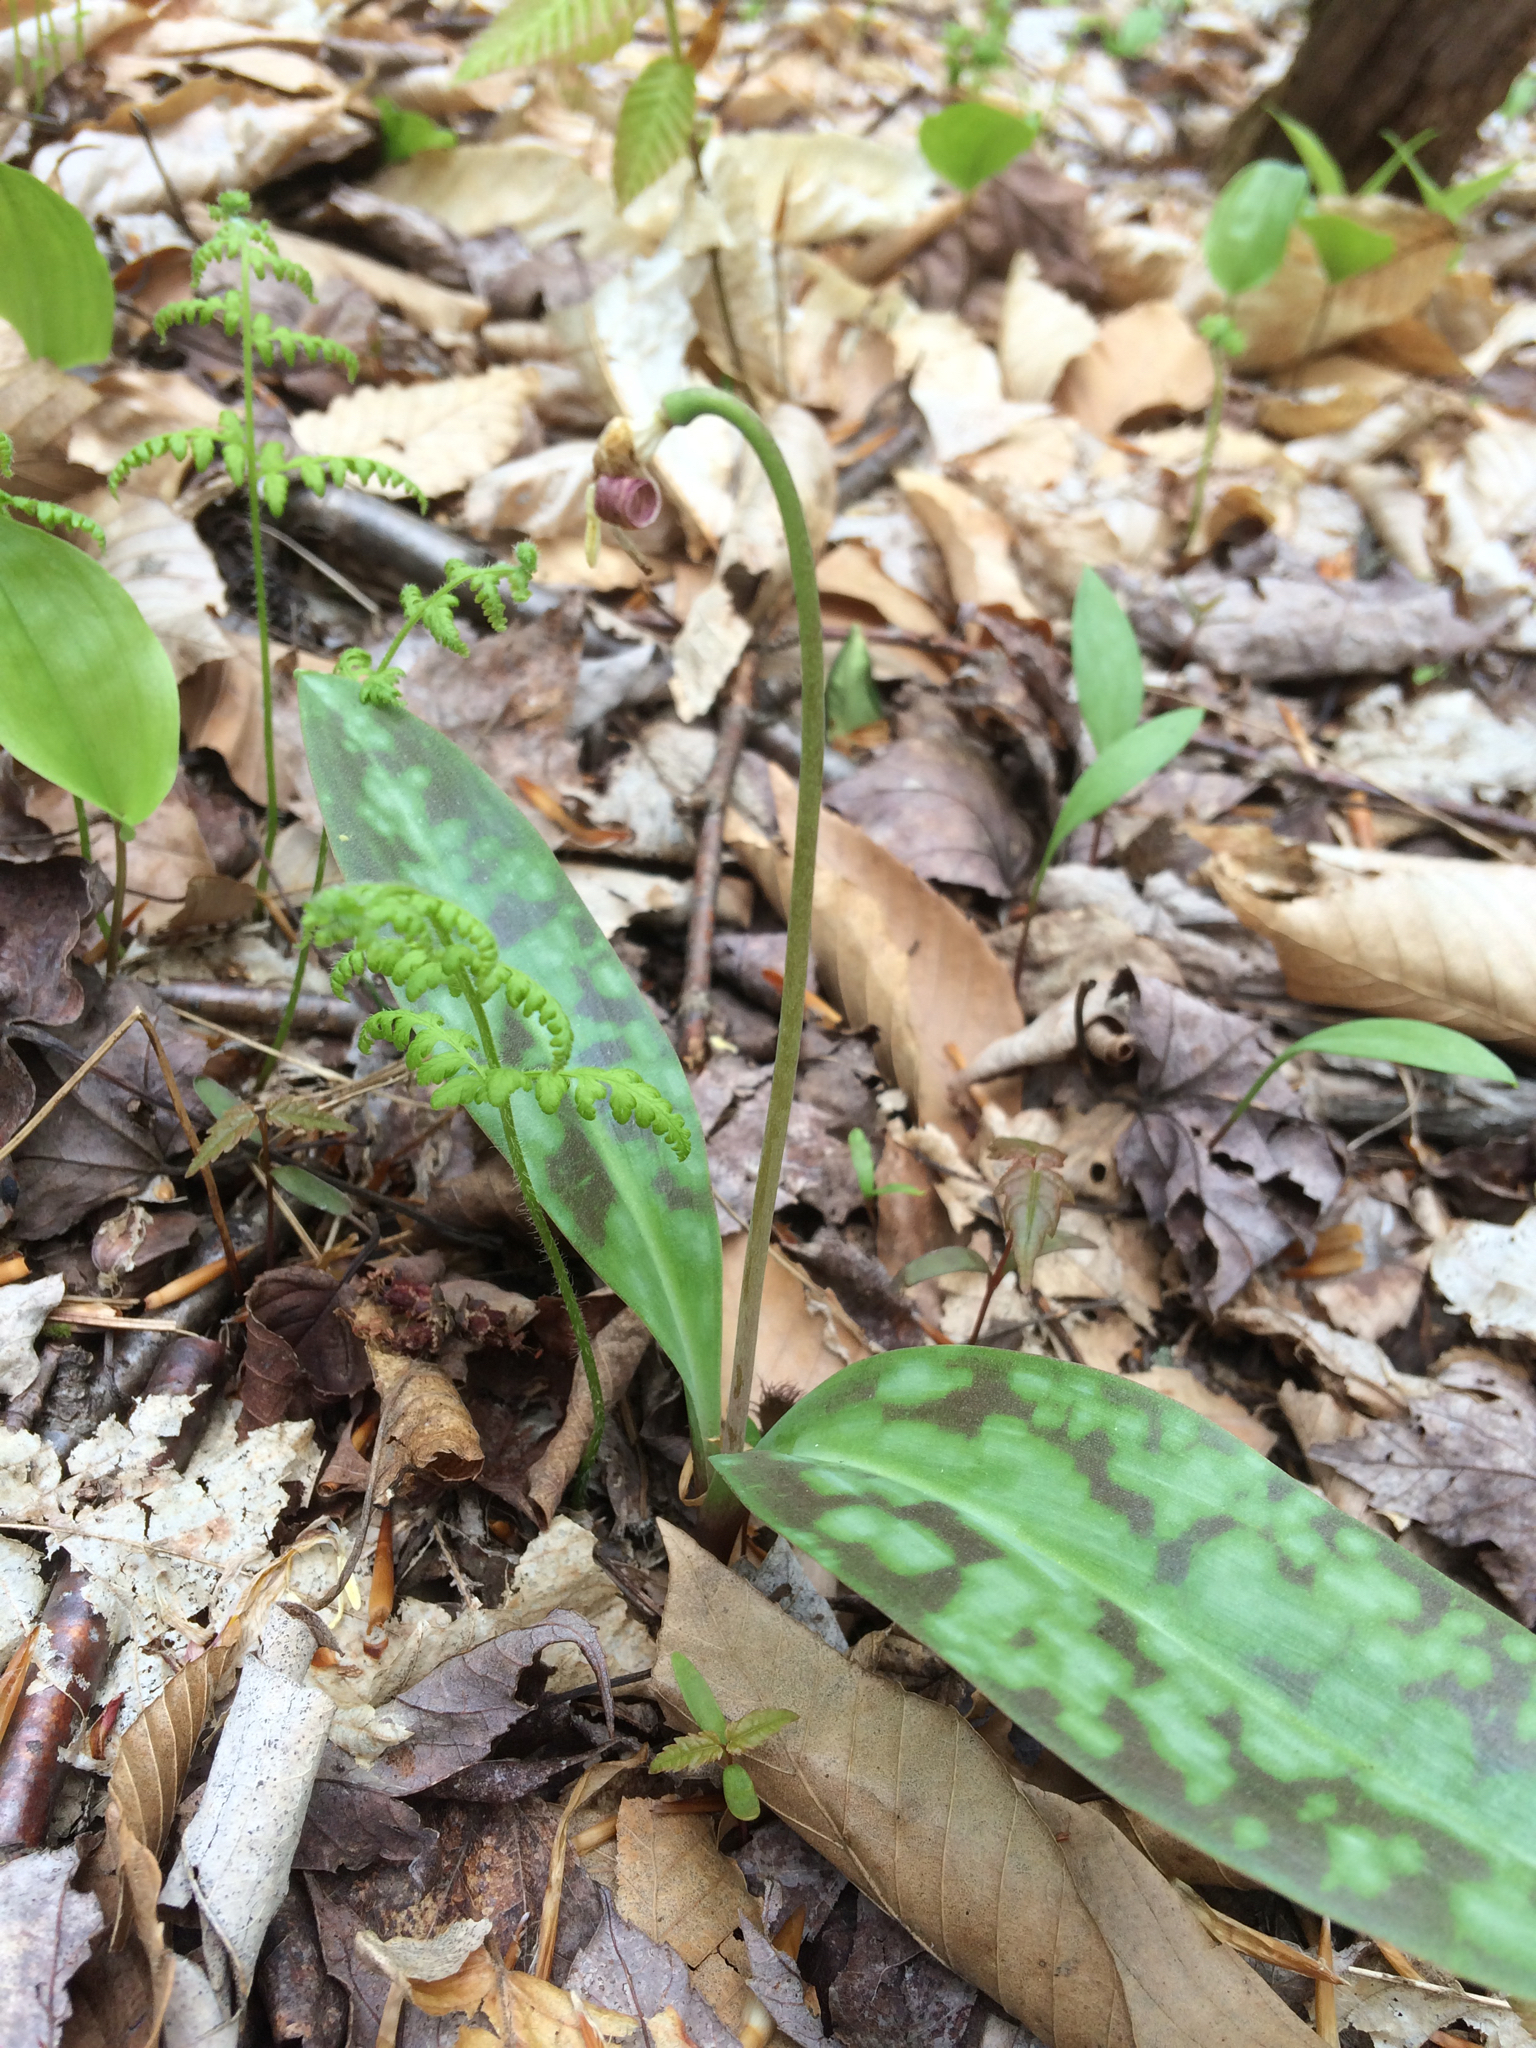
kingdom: Plantae
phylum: Tracheophyta
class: Liliopsida
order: Liliales
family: Liliaceae
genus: Erythronium
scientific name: Erythronium americanum
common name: Yellow adder's-tongue
